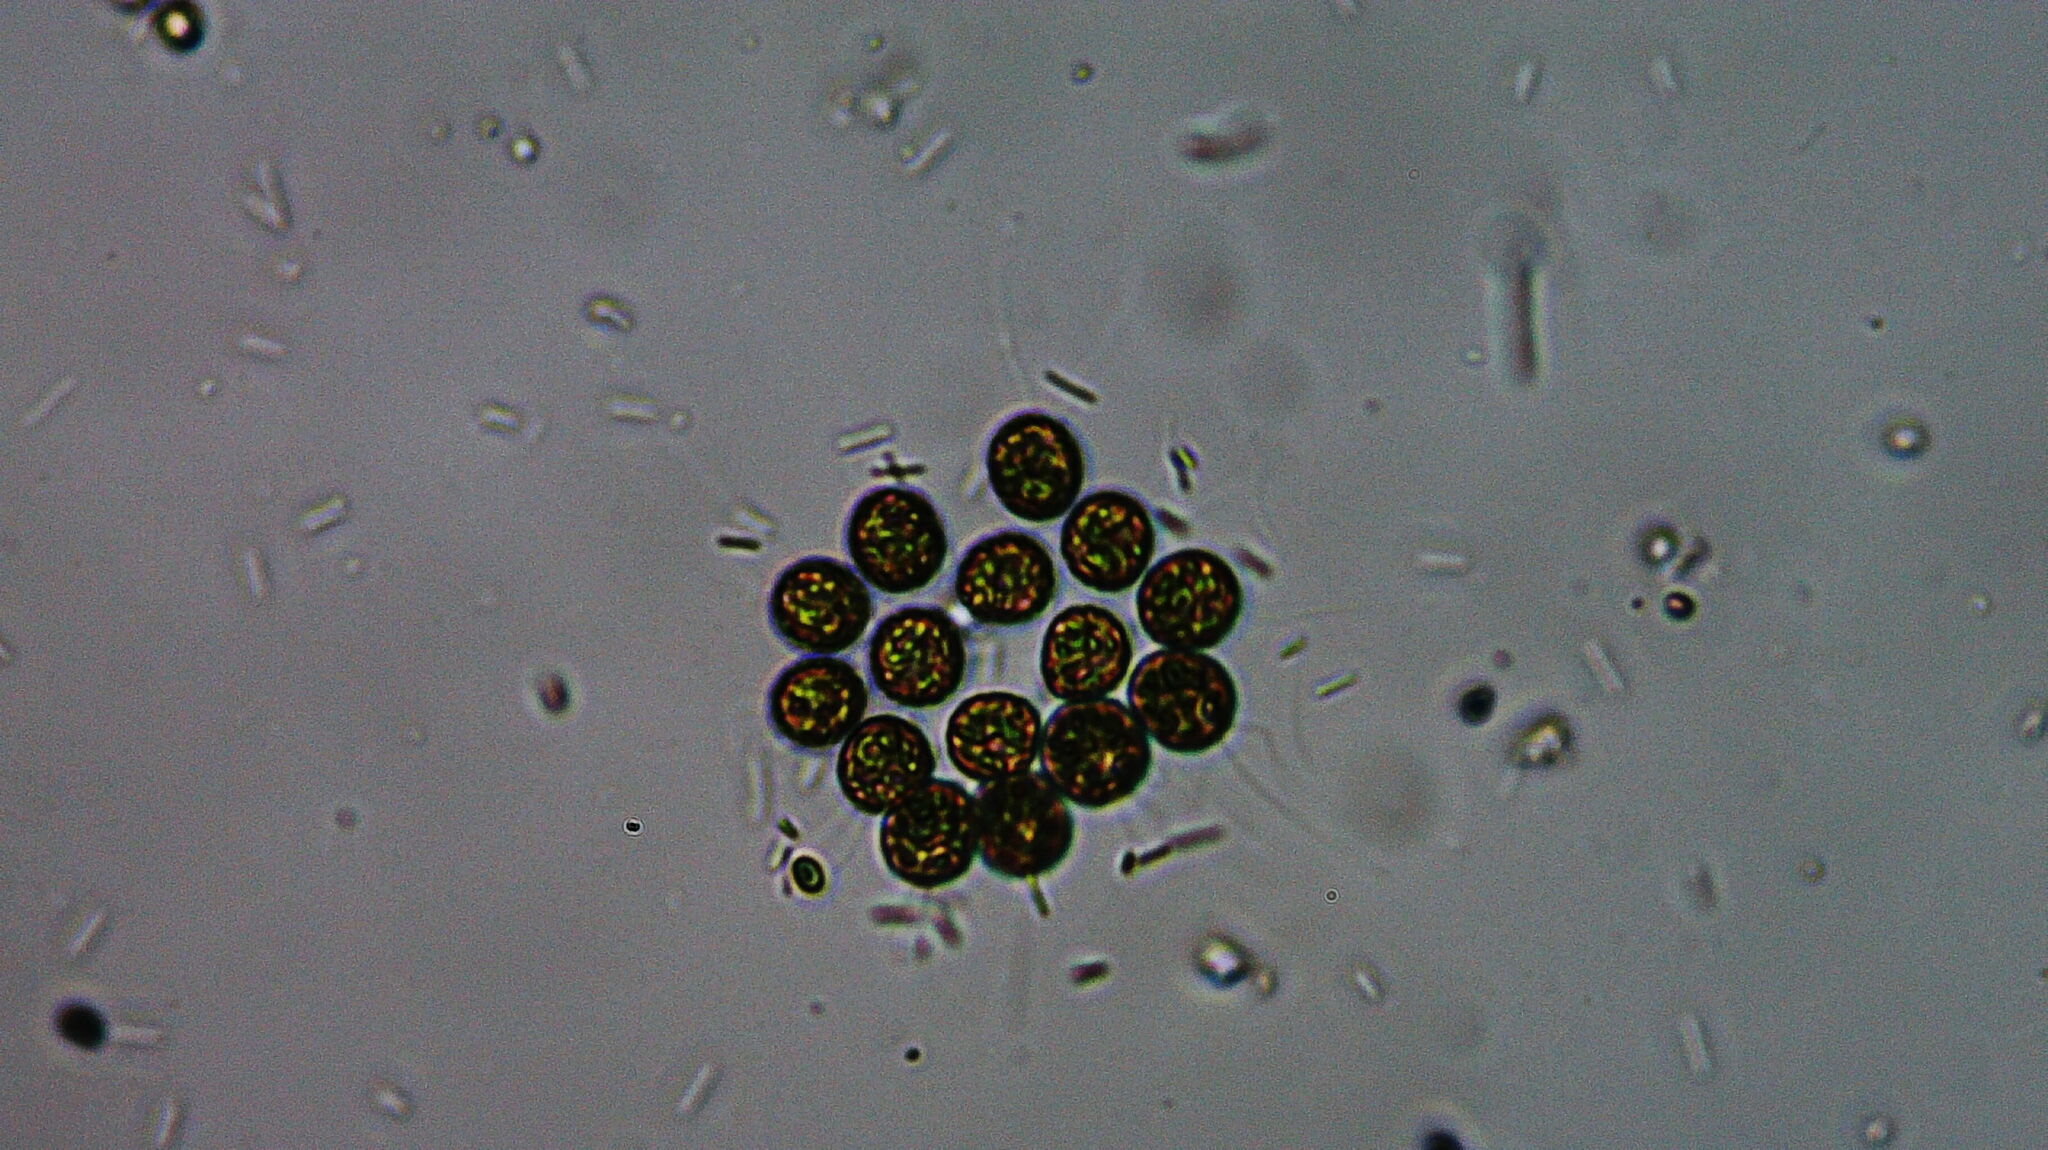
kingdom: Plantae
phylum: Chlorophyta
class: Chlorophyceae
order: Volvocales
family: Goniaceae
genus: Gonium
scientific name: Gonium pectorale
